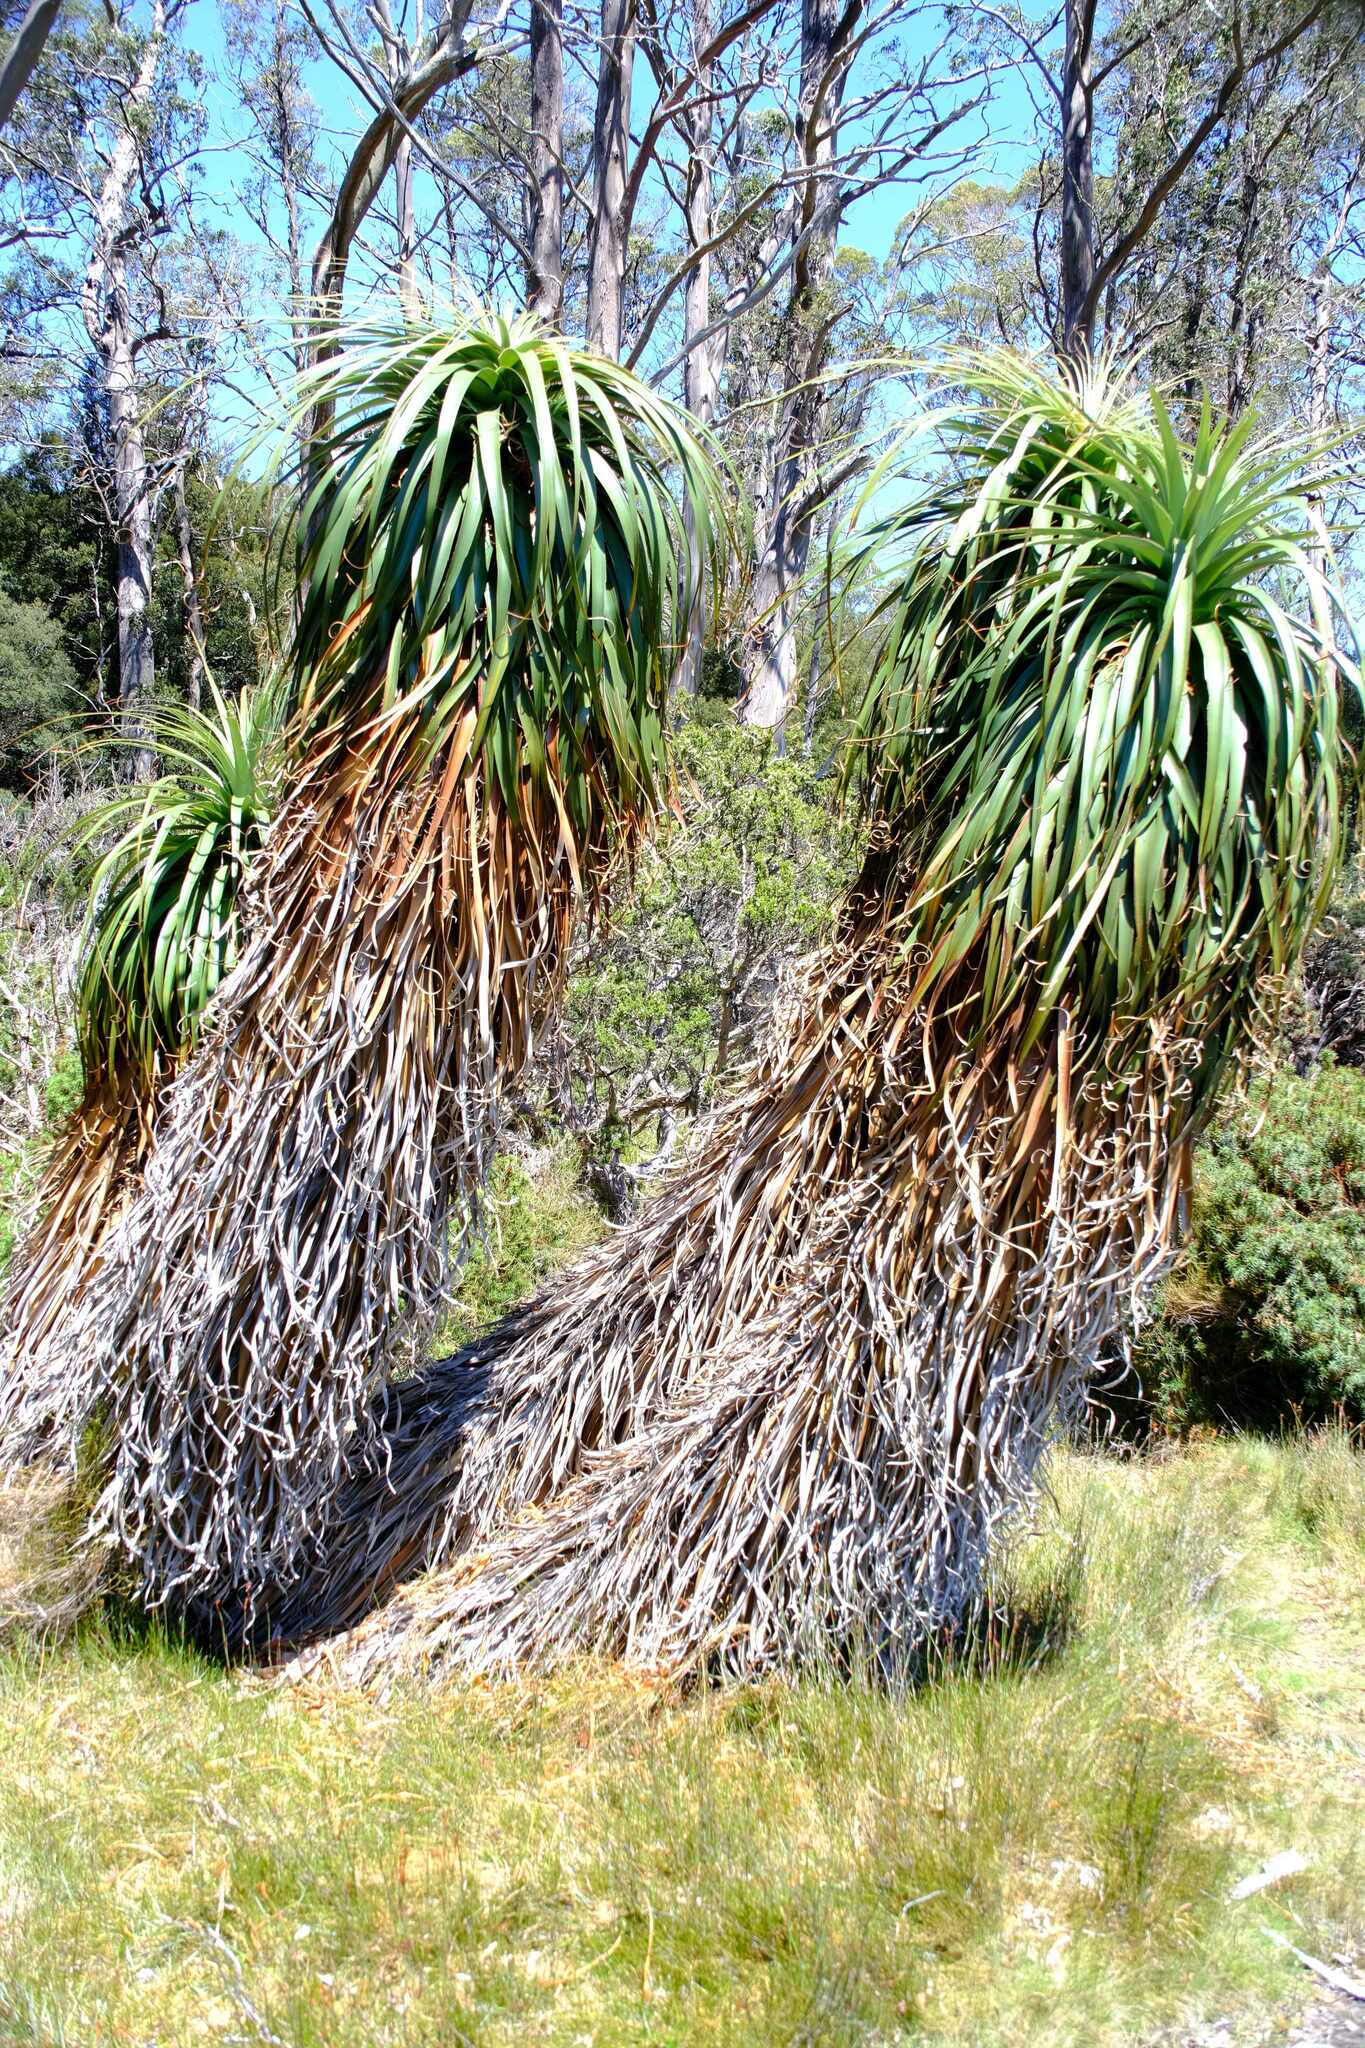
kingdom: Plantae
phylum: Tracheophyta
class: Magnoliopsida
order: Ericales
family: Ericaceae
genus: Dracophyllum
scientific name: Dracophyllum pandanifolium
